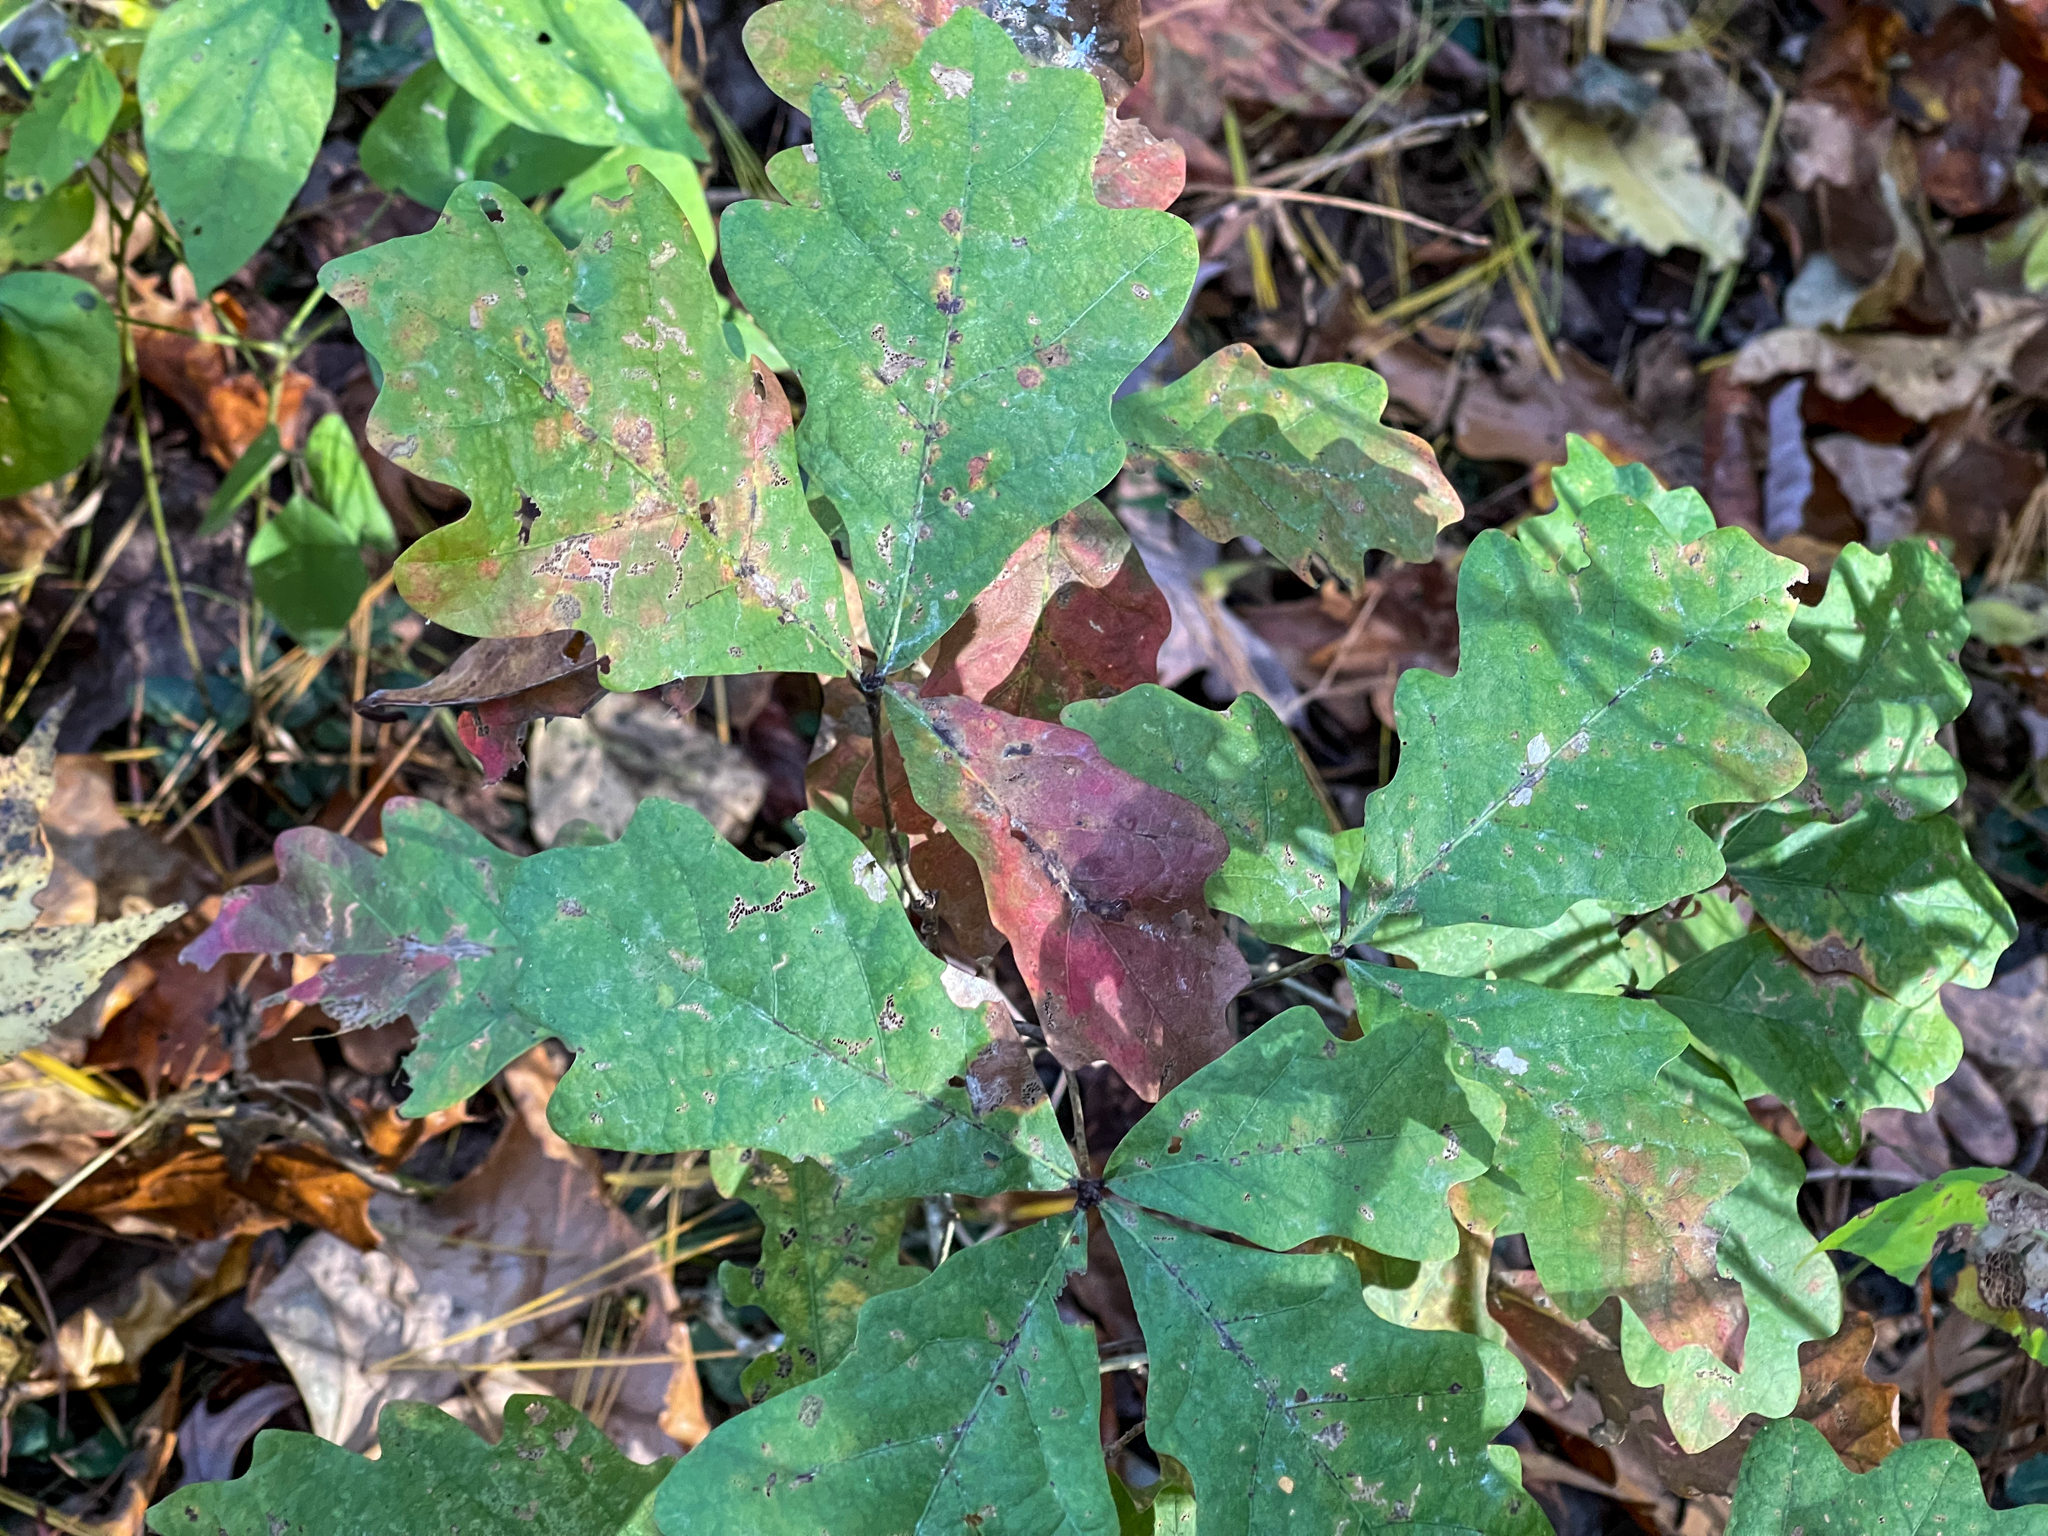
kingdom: Plantae
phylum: Tracheophyta
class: Magnoliopsida
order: Fagales
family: Fagaceae
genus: Quercus
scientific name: Quercus alba
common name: White oak
